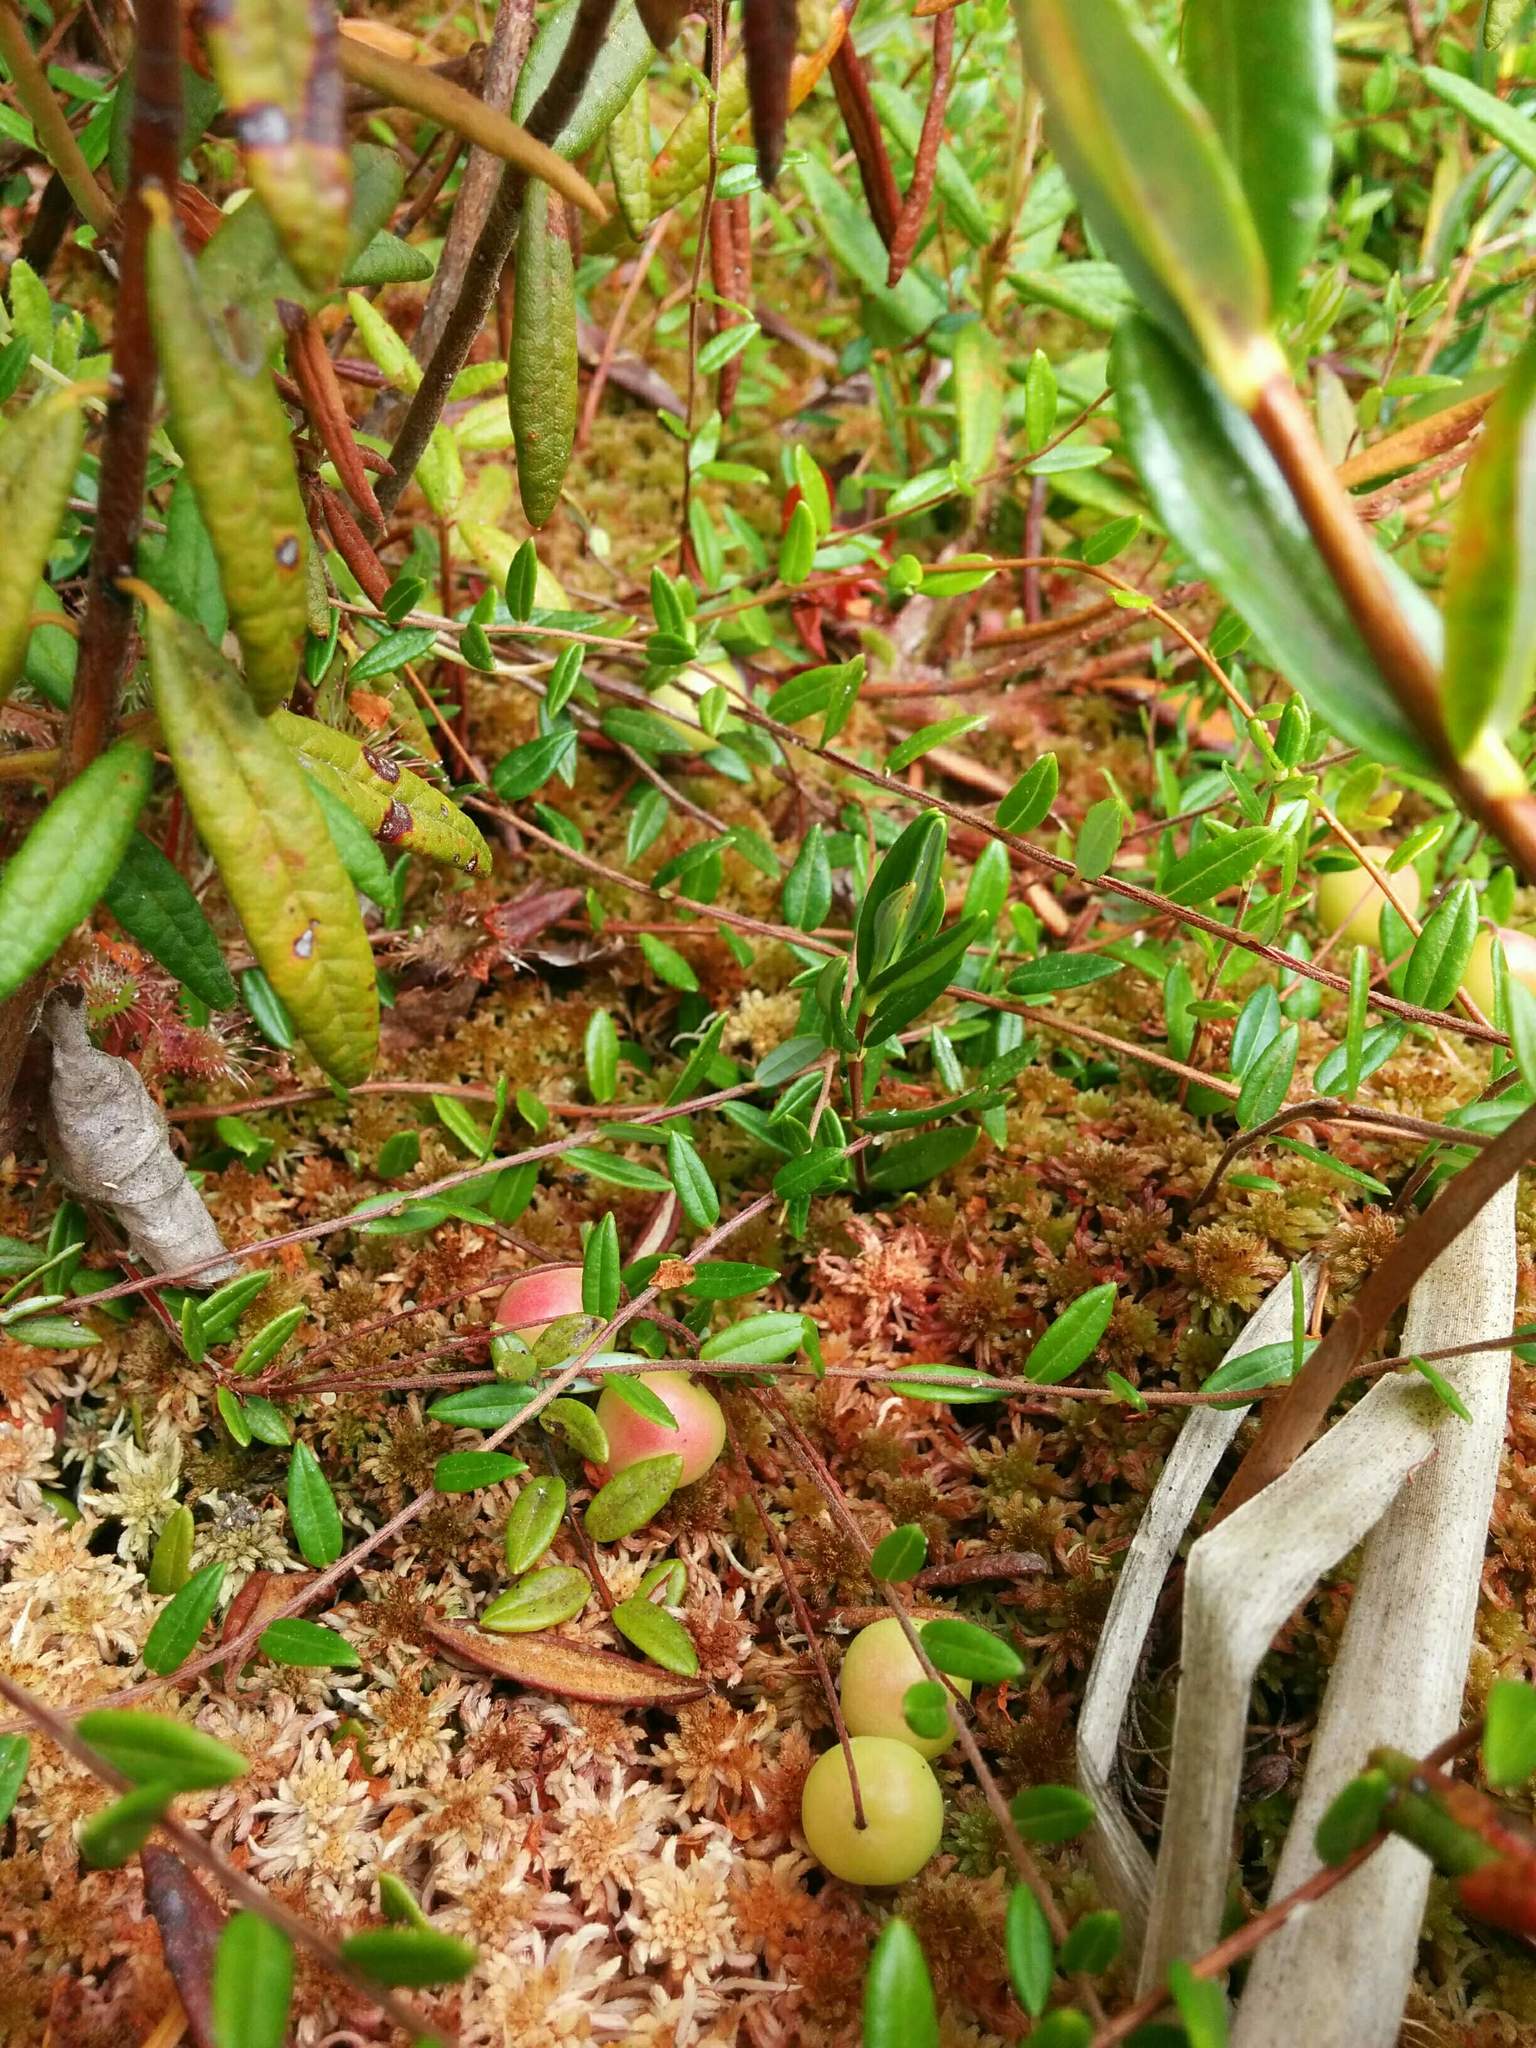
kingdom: Plantae
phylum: Tracheophyta
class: Magnoliopsida
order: Ericales
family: Ericaceae
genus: Vaccinium
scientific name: Vaccinium oxycoccos
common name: Cranberry
